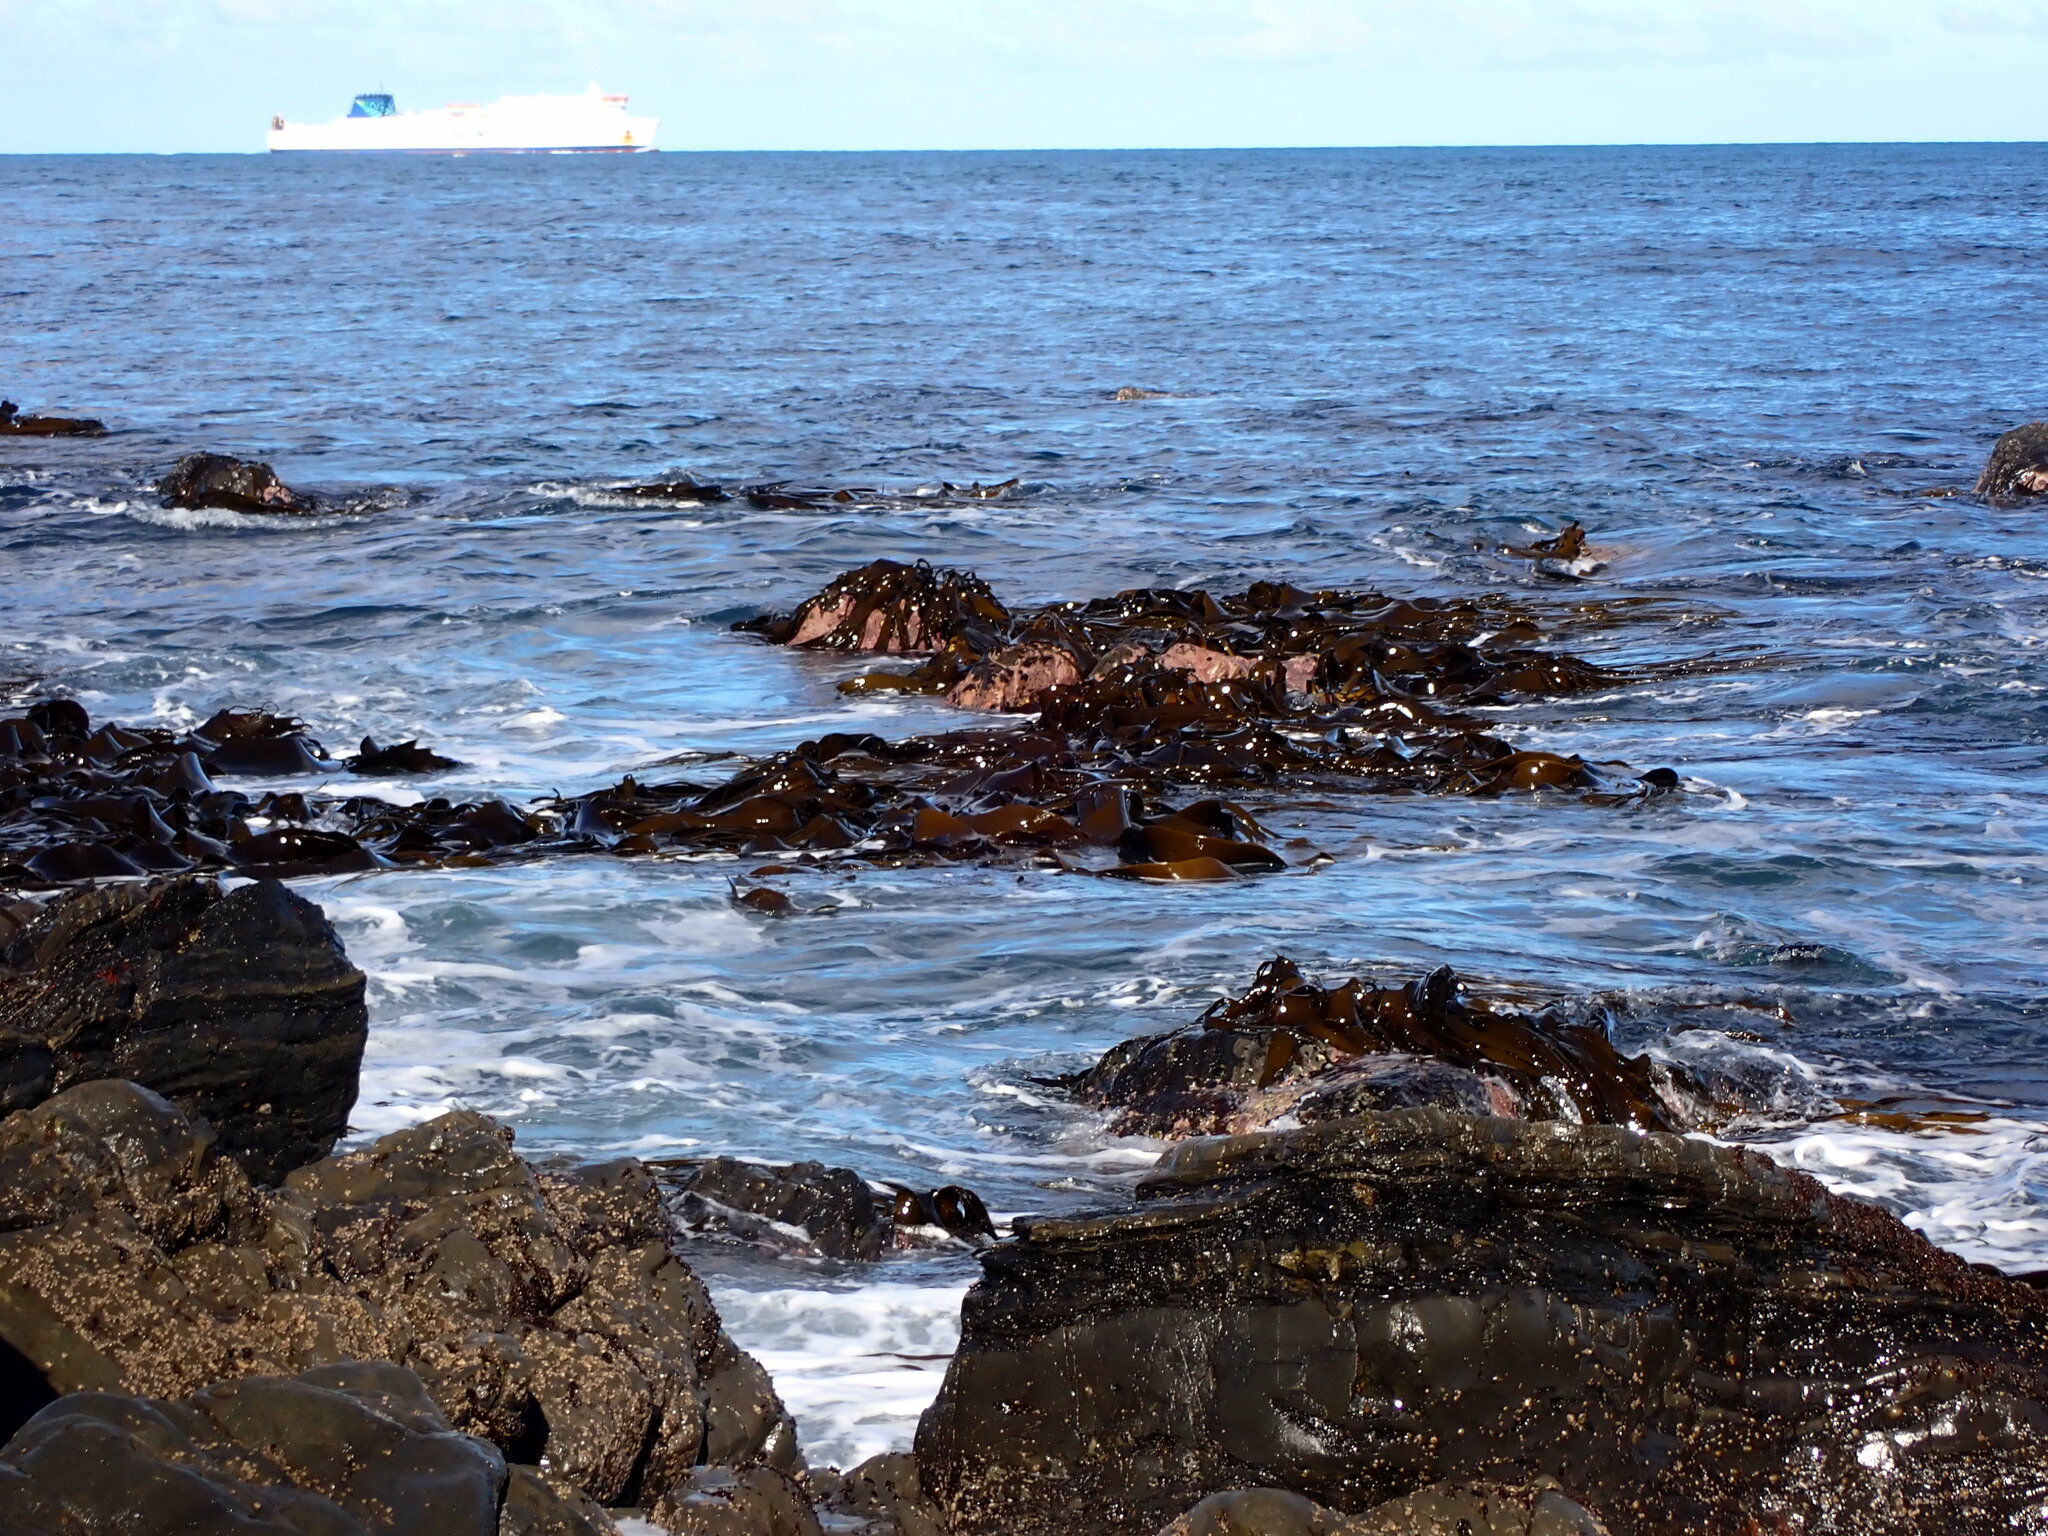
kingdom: Chromista
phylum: Ochrophyta
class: Phaeophyceae
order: Fucales
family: Durvillaeaceae
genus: Durvillaea
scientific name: Durvillaea antarctica
